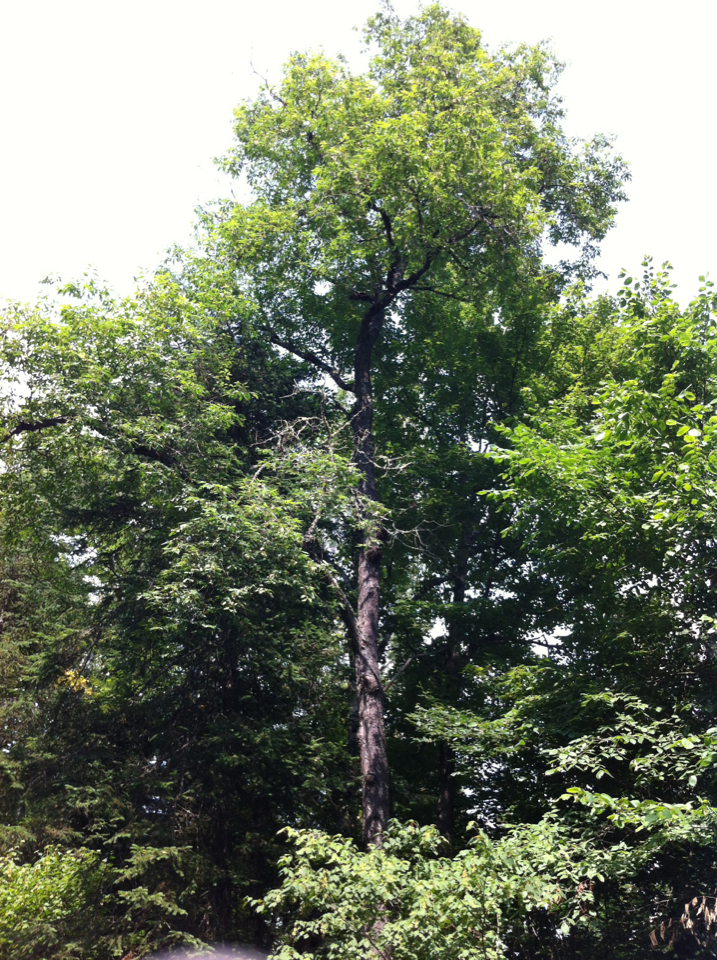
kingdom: Plantae
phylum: Tracheophyta
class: Magnoliopsida
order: Rosales
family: Rosaceae
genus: Prunus
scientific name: Prunus serotina
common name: Black cherry
